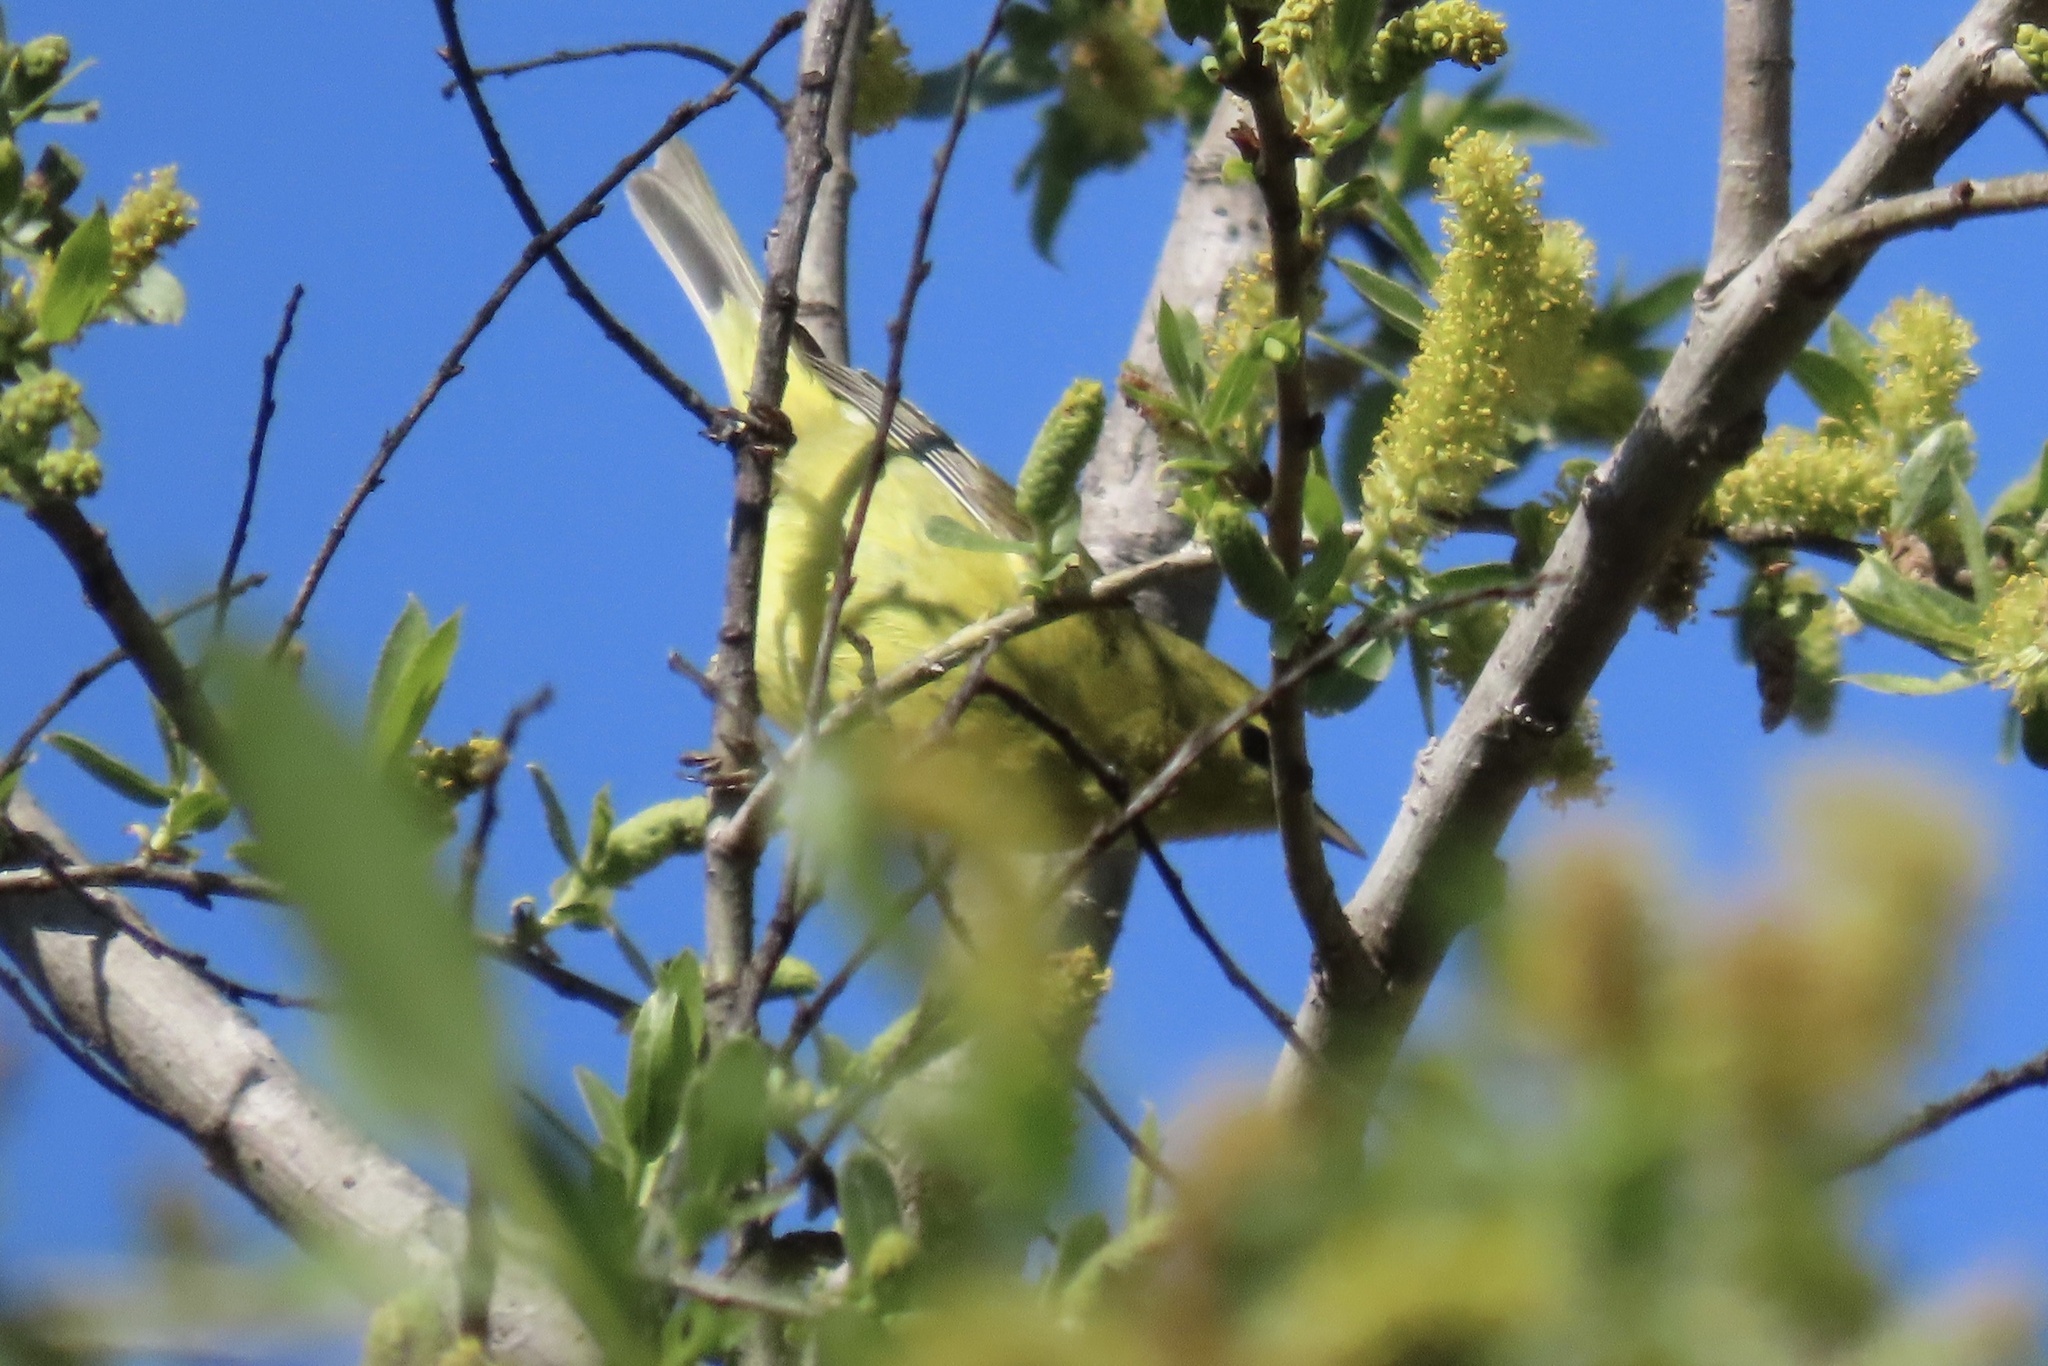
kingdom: Animalia
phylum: Chordata
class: Aves
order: Passeriformes
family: Parulidae
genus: Leiothlypis
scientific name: Leiothlypis celata
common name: Orange-crowned warbler
